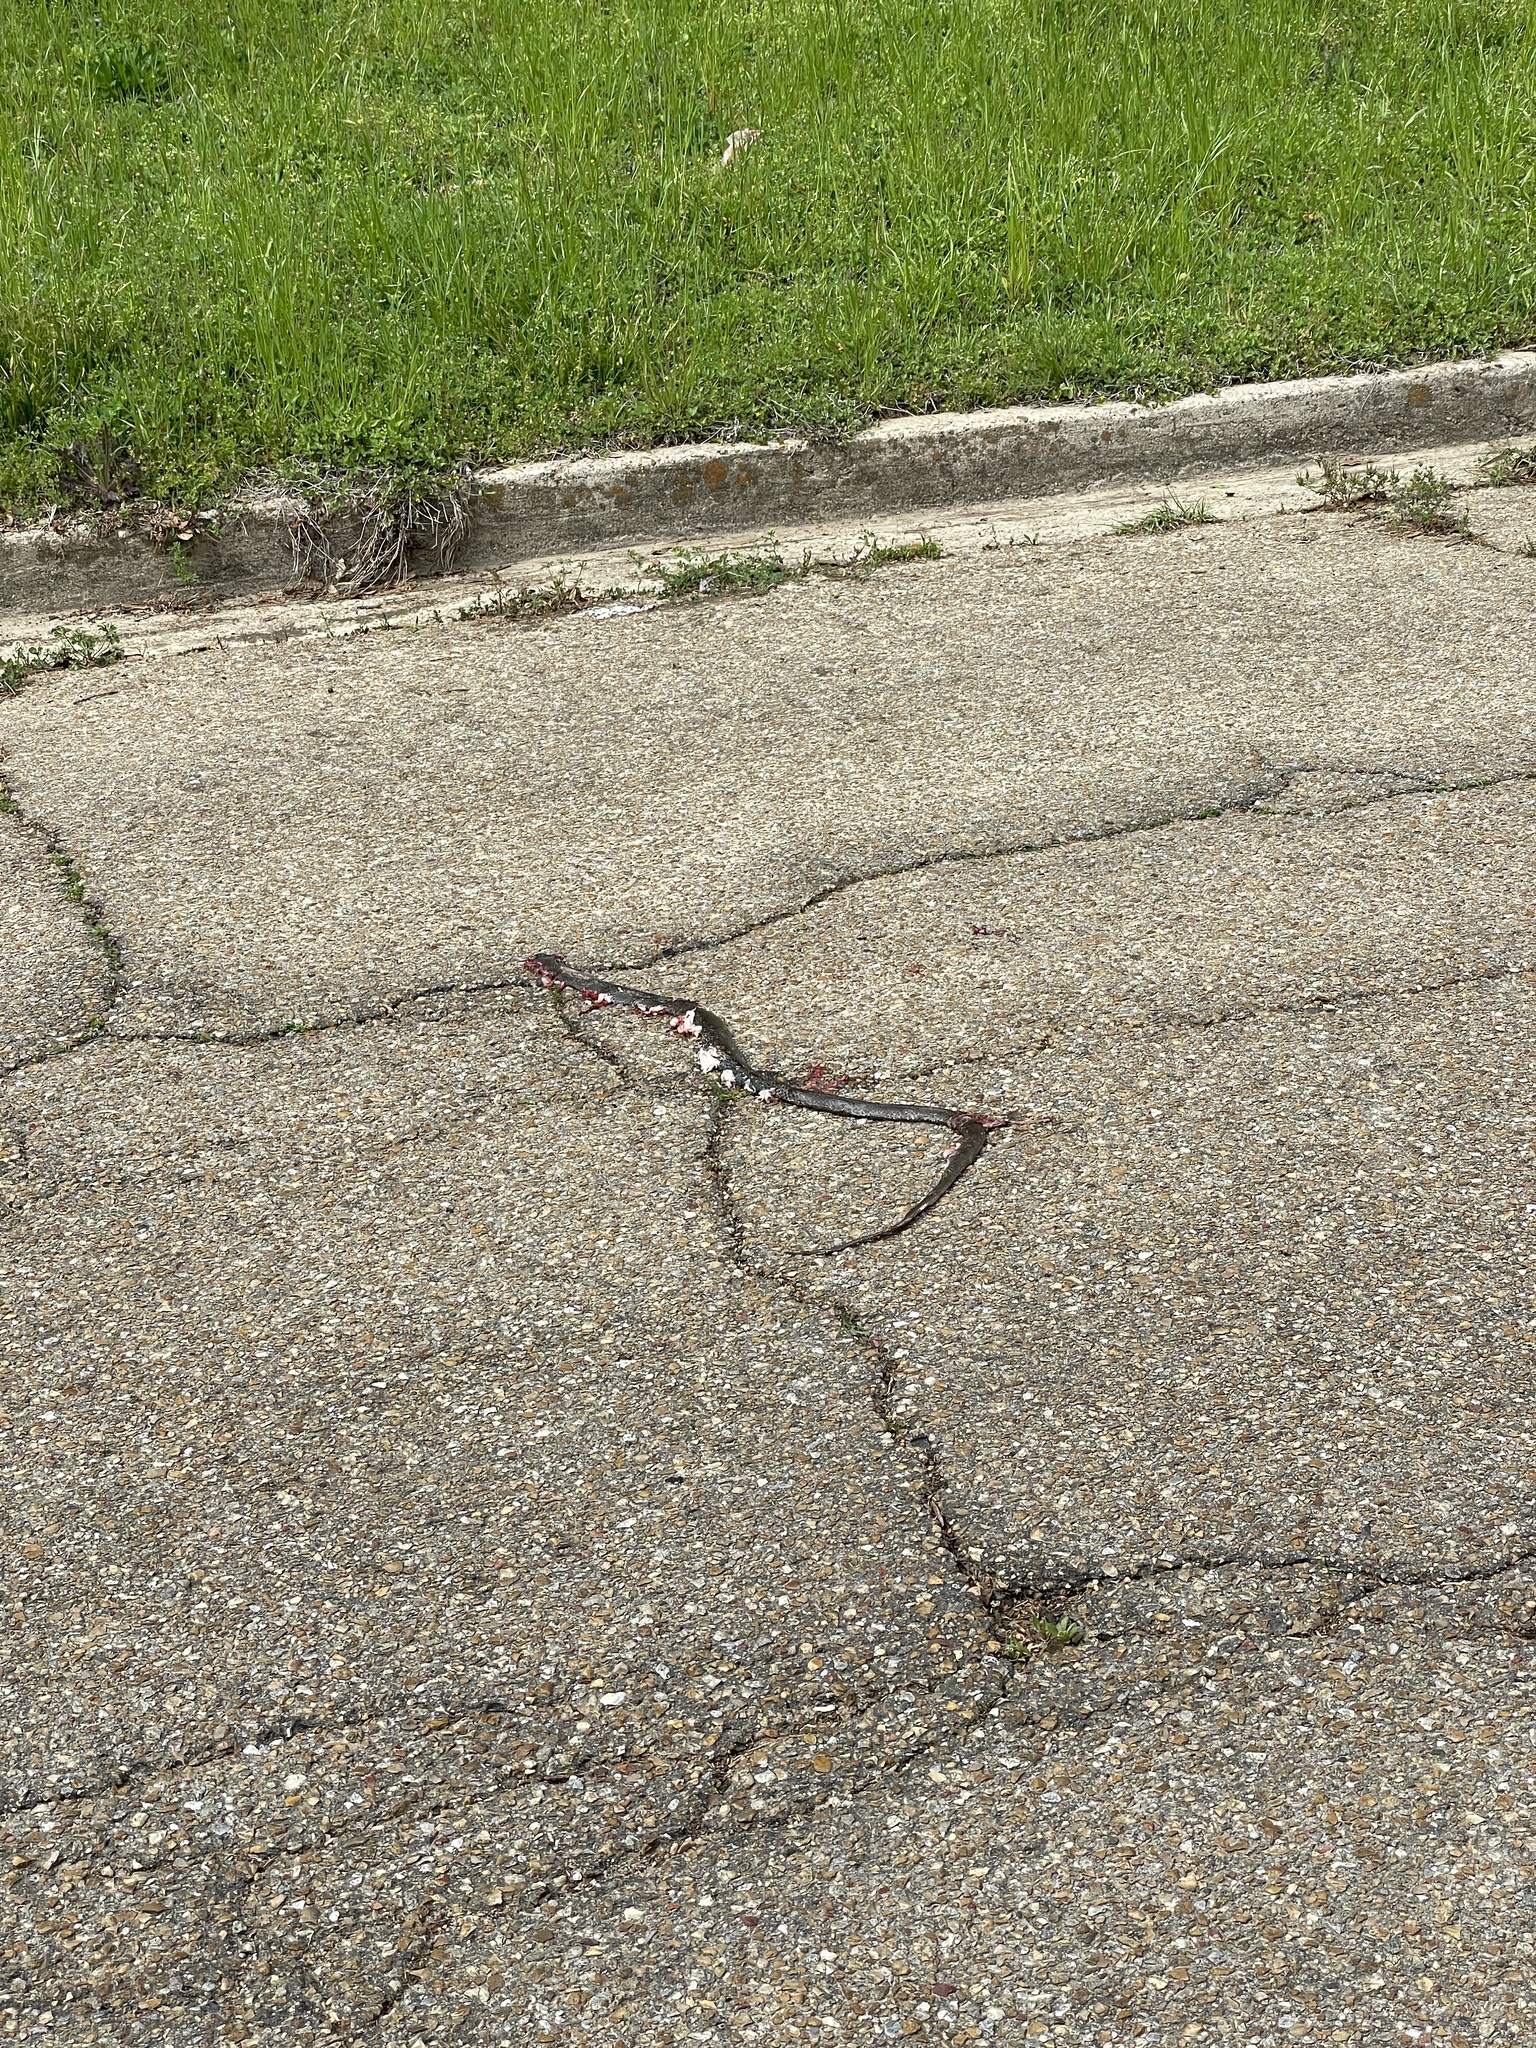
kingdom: Animalia
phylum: Chordata
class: Squamata
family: Colubridae
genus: Coluber
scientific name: Coluber constrictor
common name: Eastern racer
